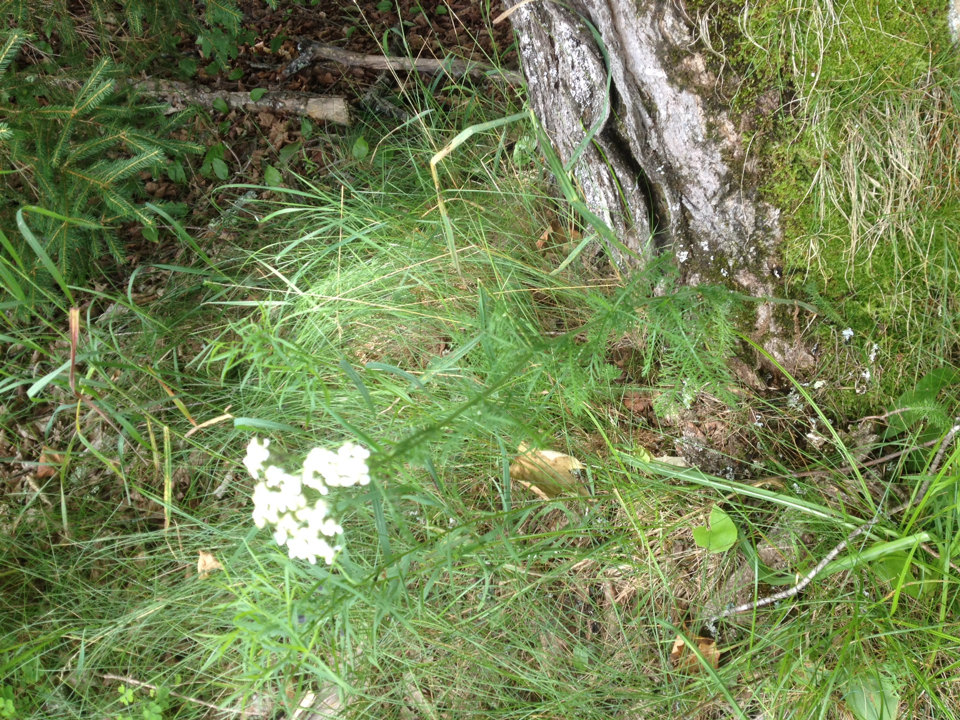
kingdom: Plantae
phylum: Tracheophyta
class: Magnoliopsida
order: Asterales
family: Asteraceae
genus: Achillea
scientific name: Achillea millefolium
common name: Yarrow
